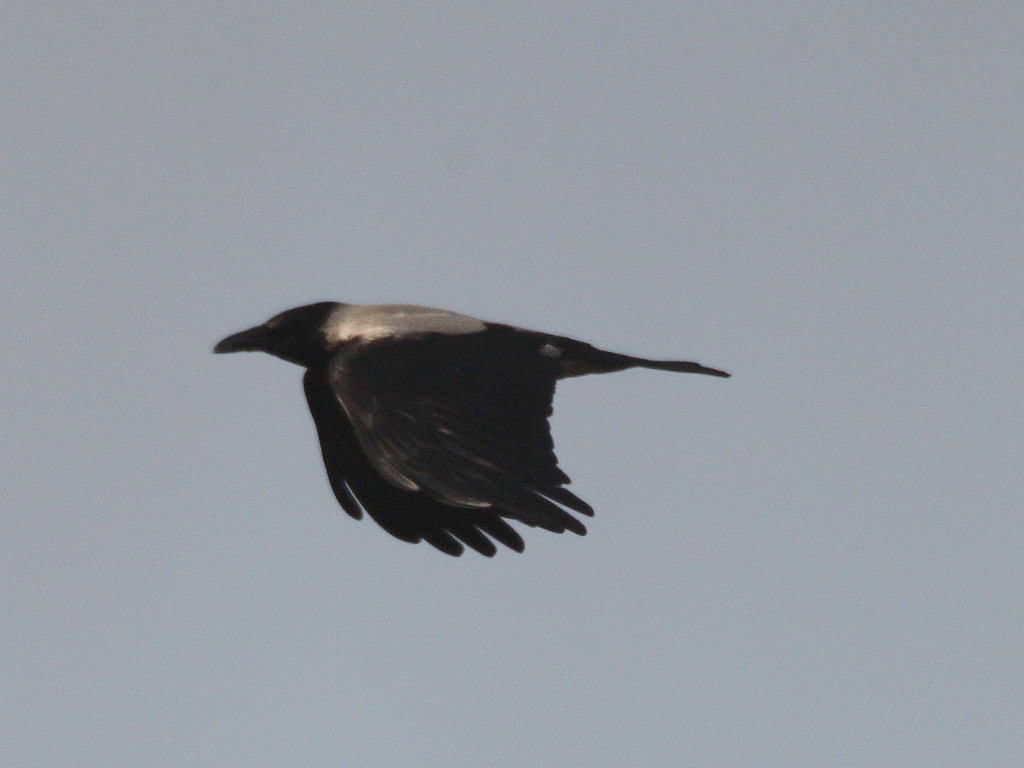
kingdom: Animalia
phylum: Chordata
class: Aves
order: Passeriformes
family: Corvidae
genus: Corvus
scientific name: Corvus cornix
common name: Hooded crow
